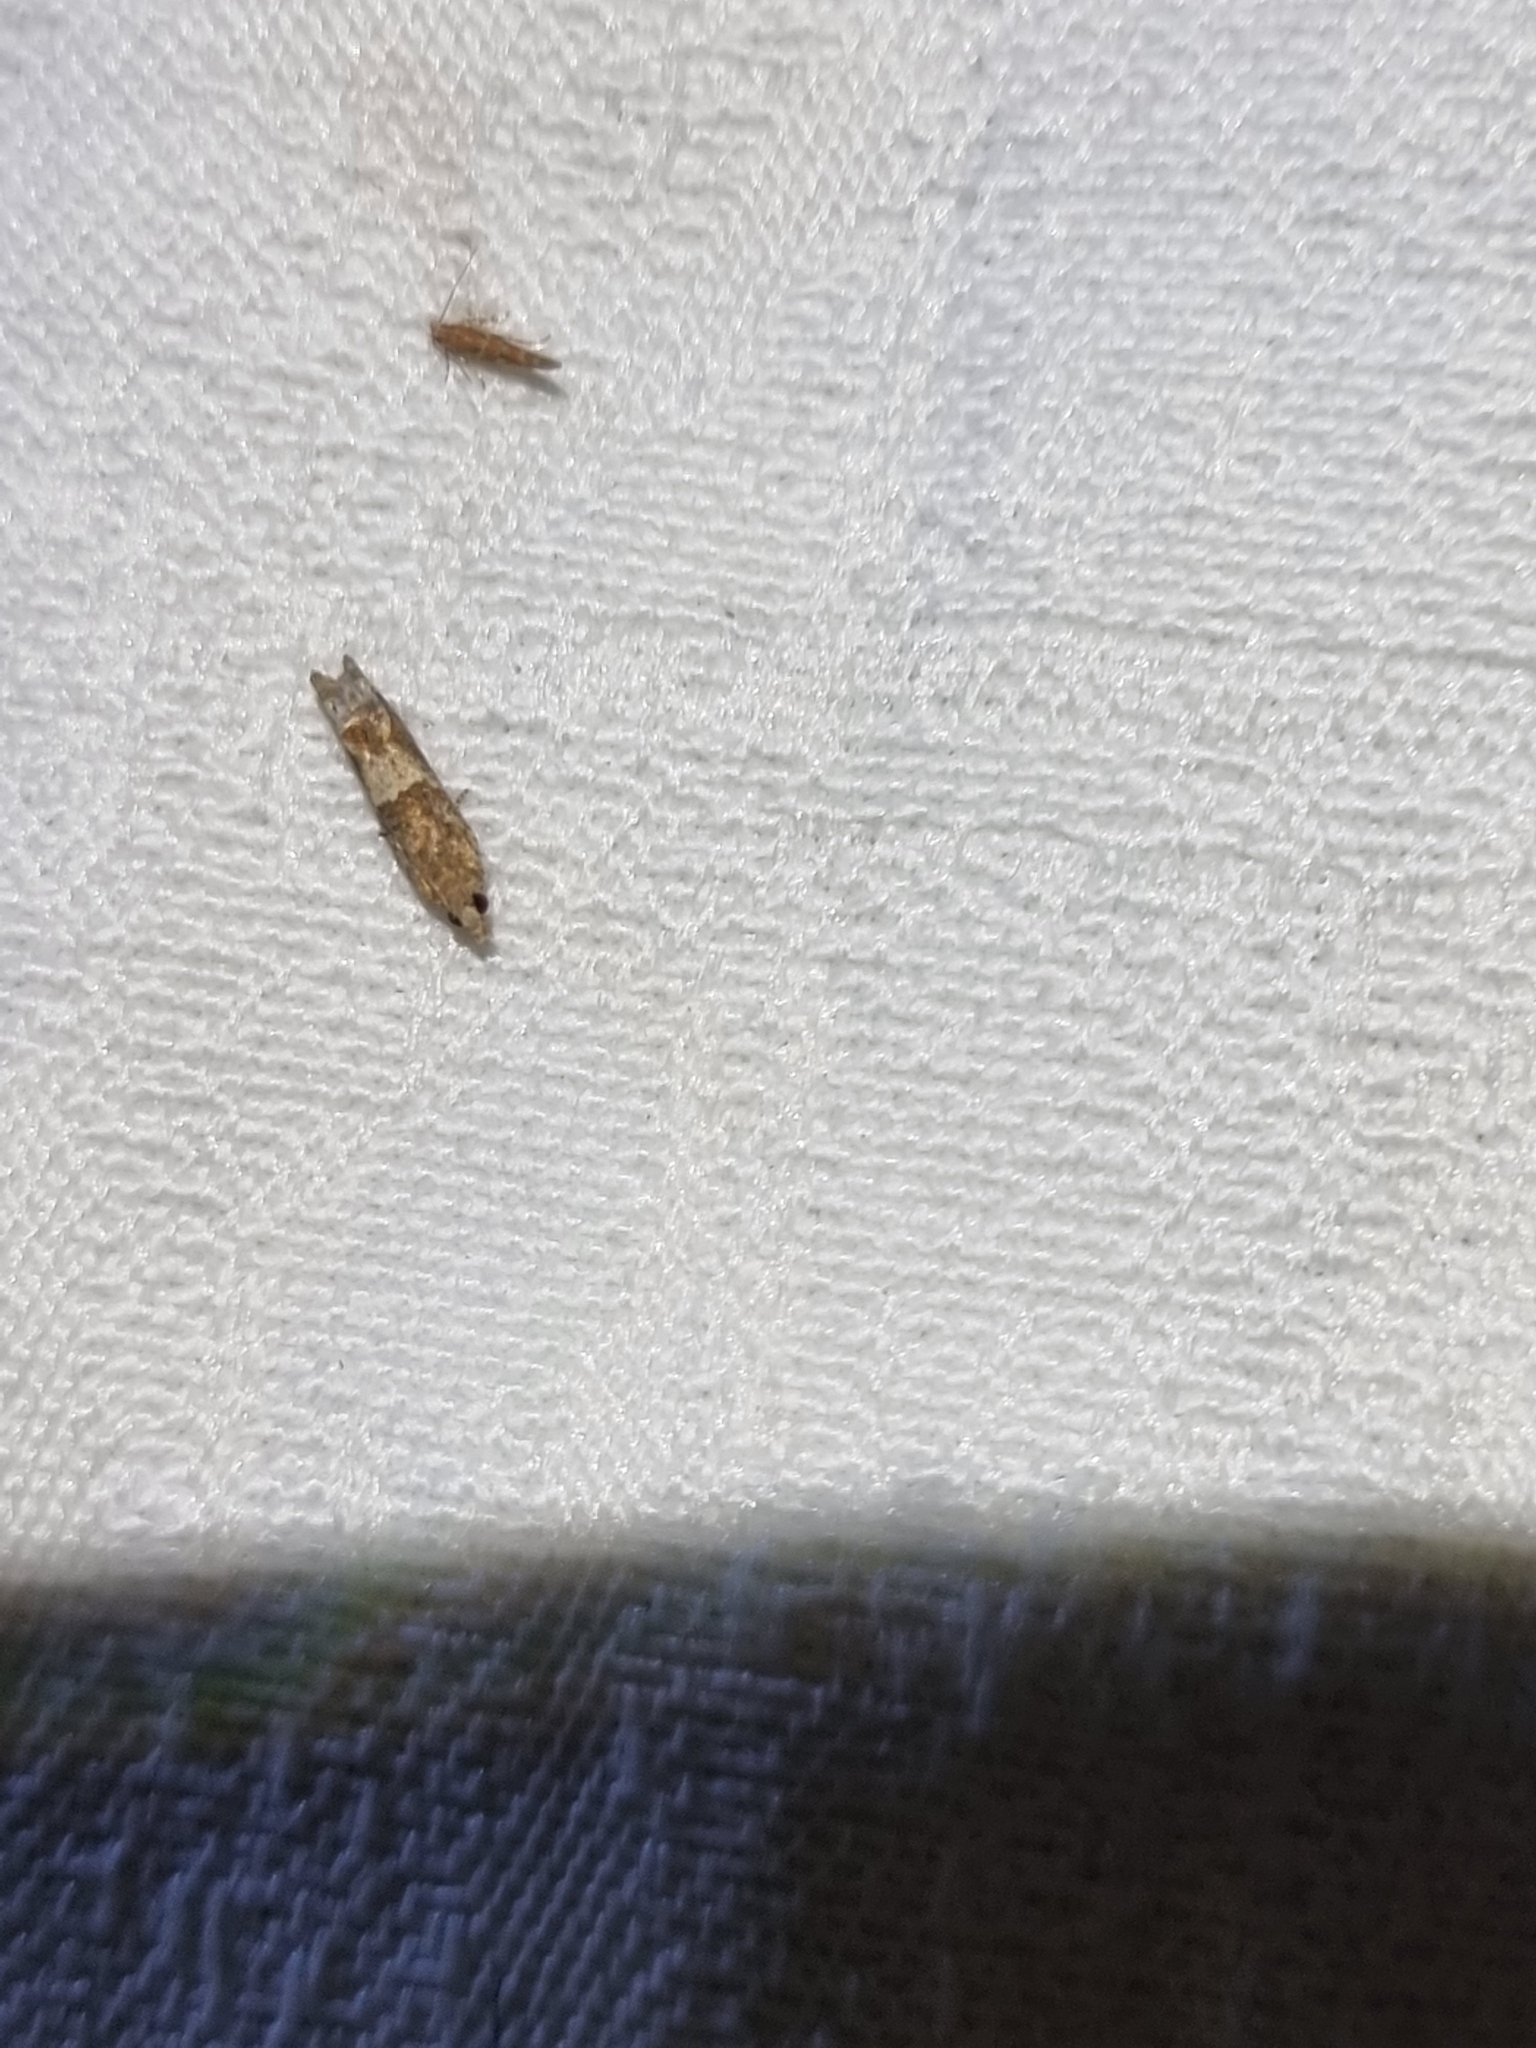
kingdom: Animalia
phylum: Arthropoda
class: Insecta
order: Lepidoptera
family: Tortricidae
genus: Crocidosema
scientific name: Crocidosema plebejana
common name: Southern bell
